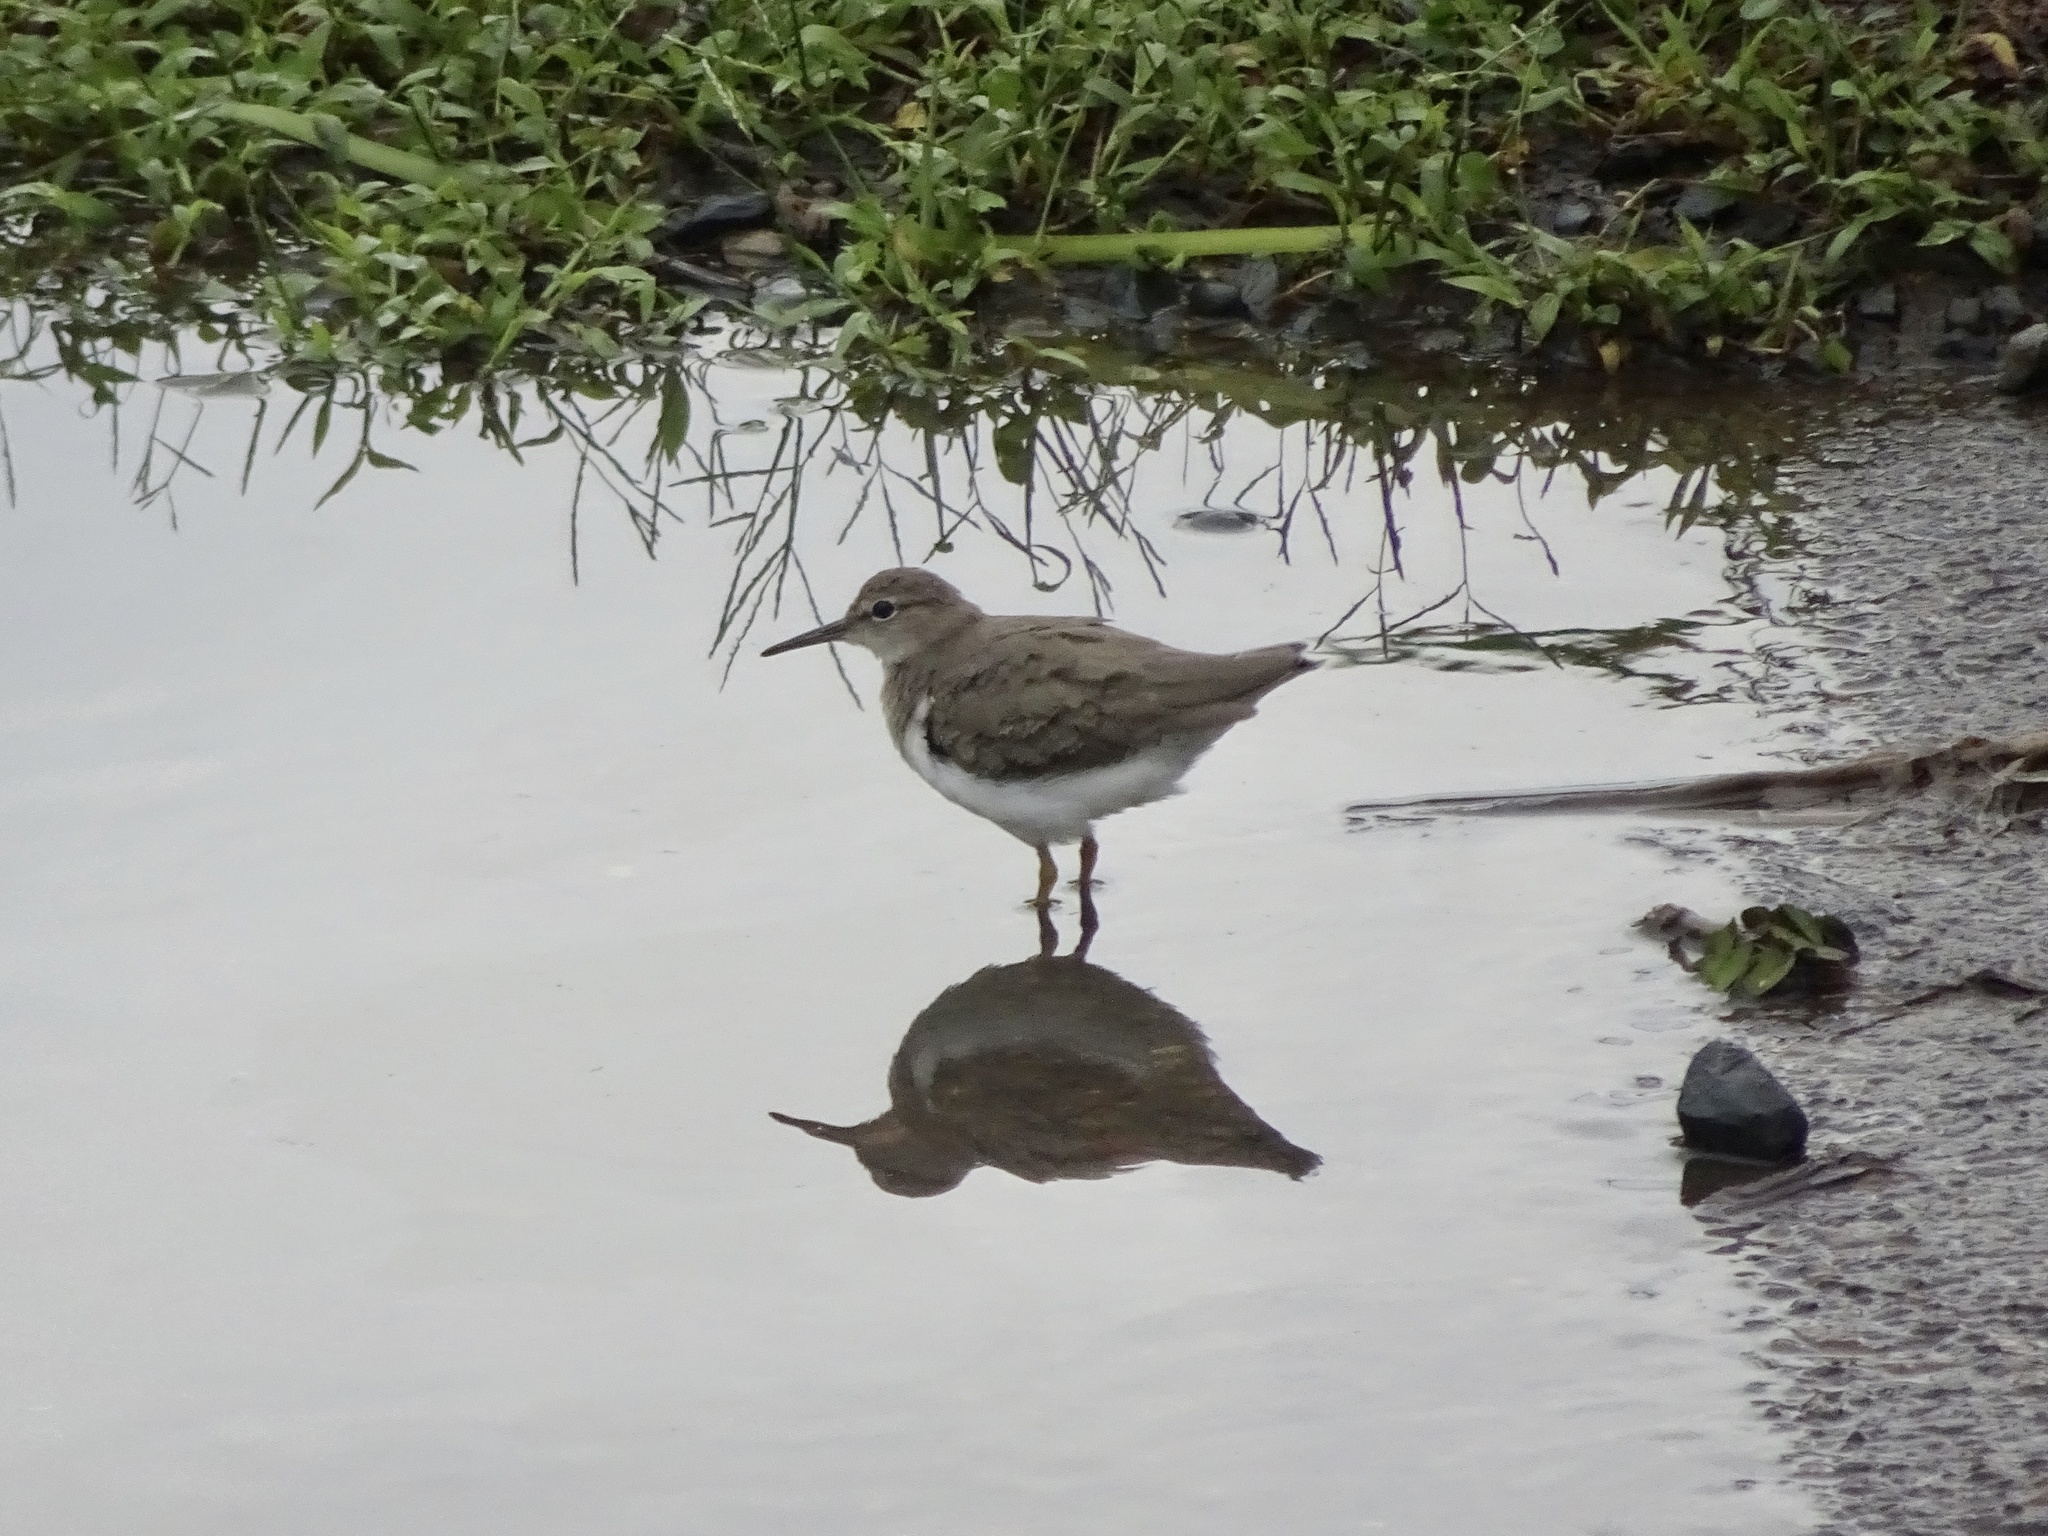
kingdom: Animalia
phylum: Chordata
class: Aves
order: Charadriiformes
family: Scolopacidae
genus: Actitis
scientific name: Actitis macularius
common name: Spotted sandpiper
